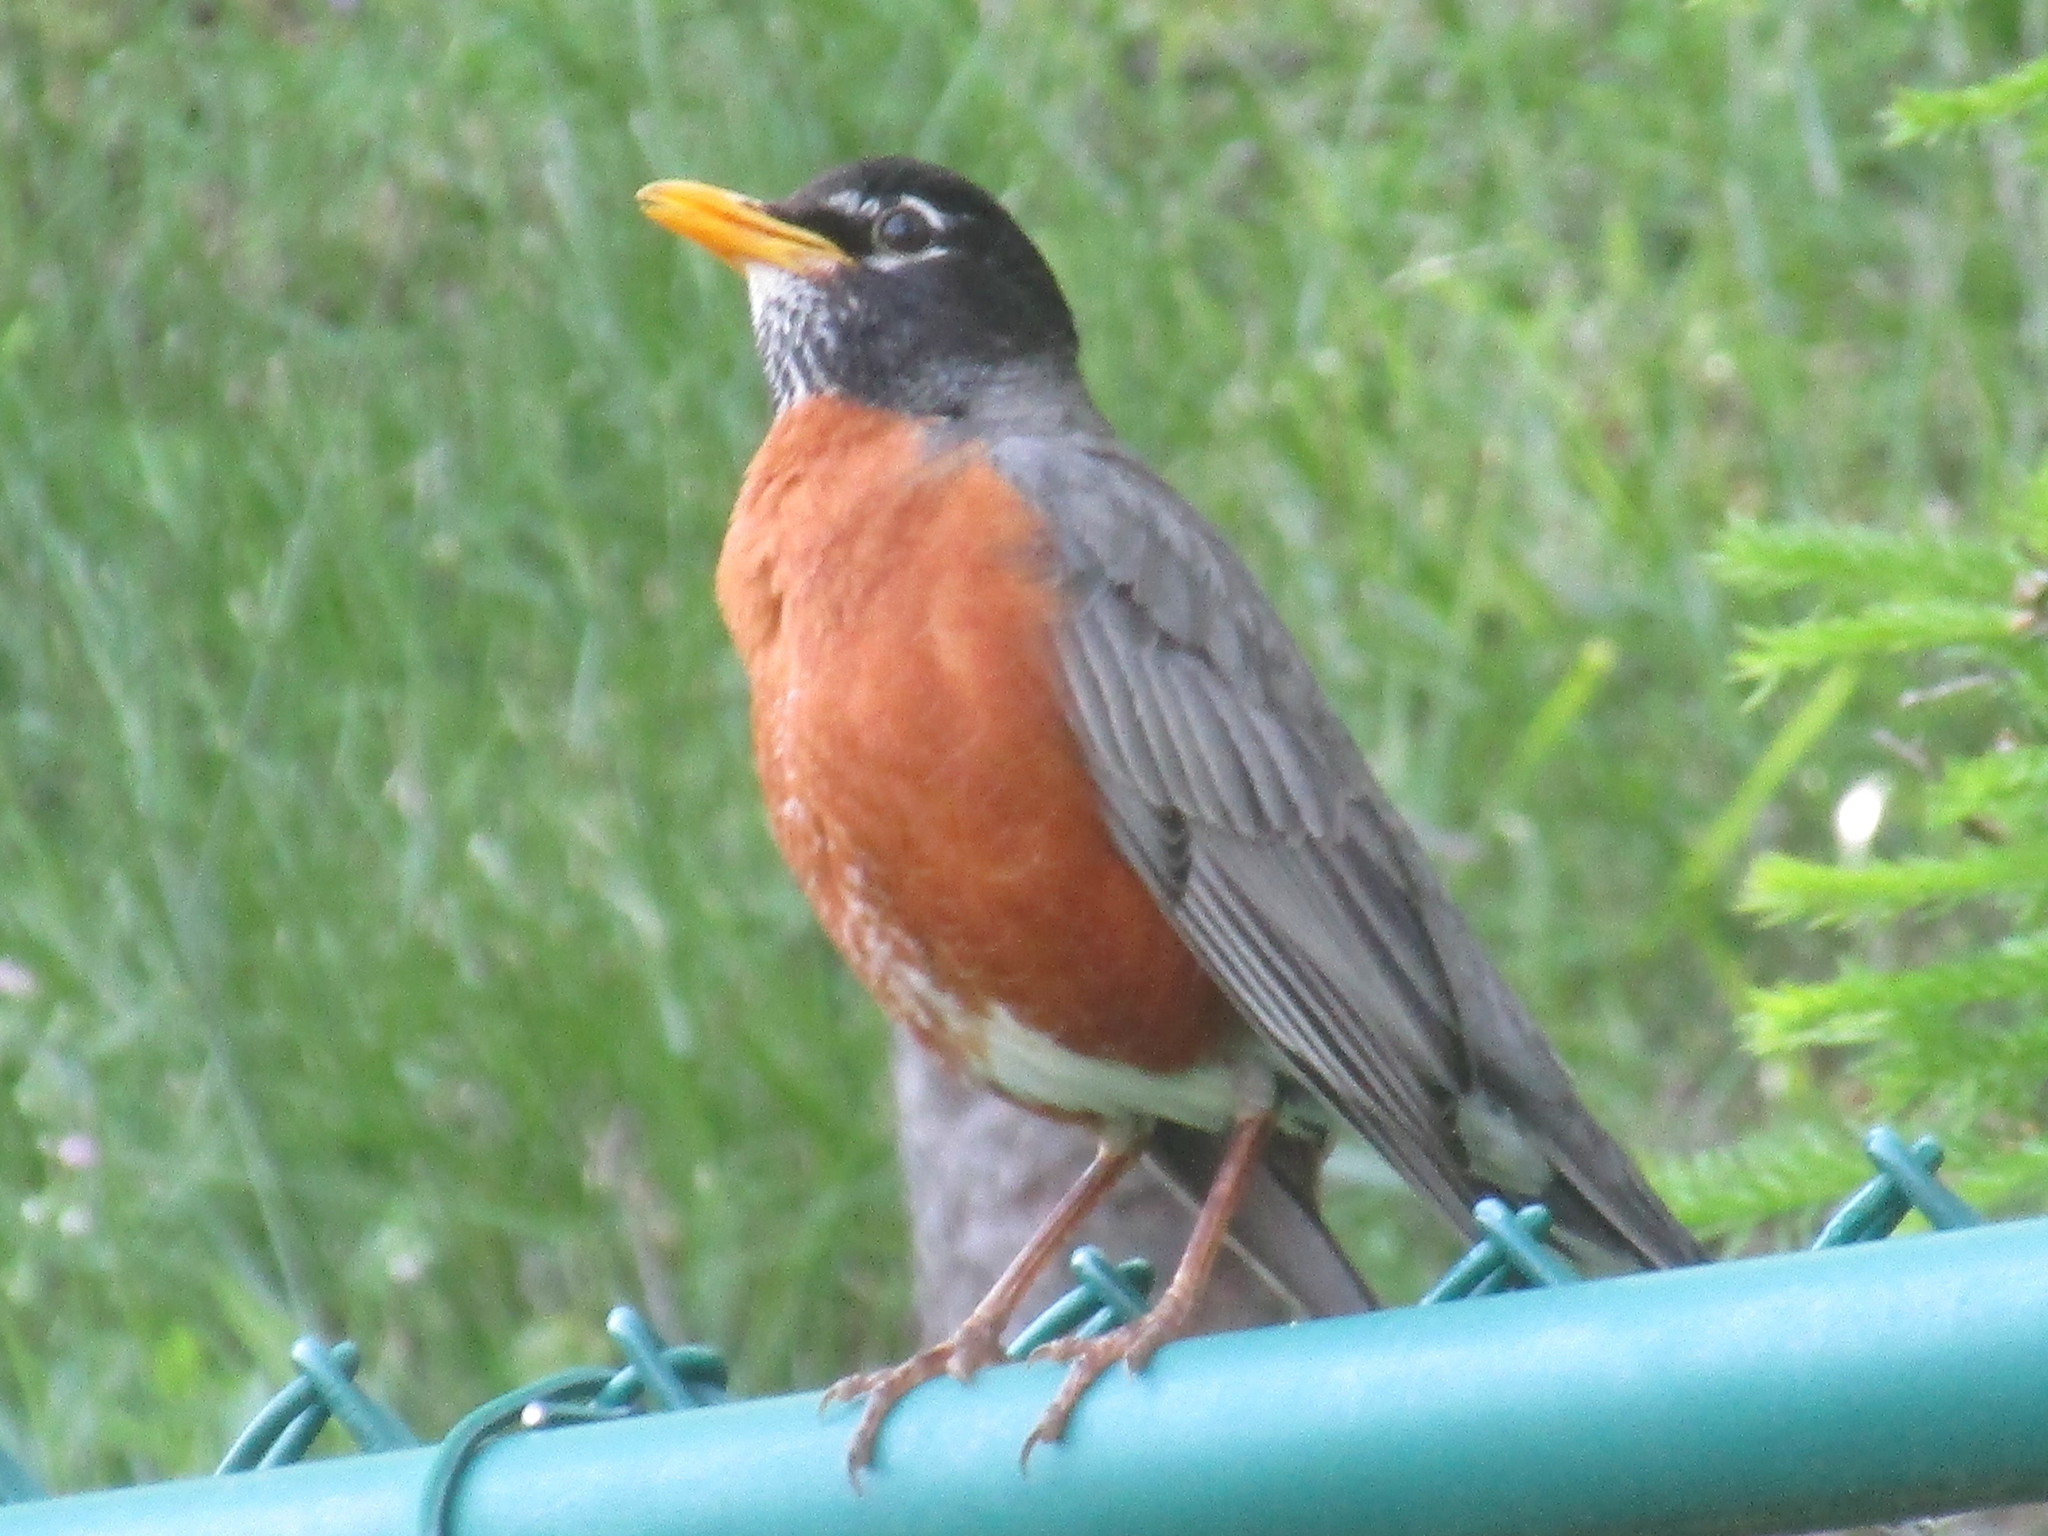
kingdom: Animalia
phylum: Chordata
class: Aves
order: Passeriformes
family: Turdidae
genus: Turdus
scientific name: Turdus migratorius
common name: American robin
